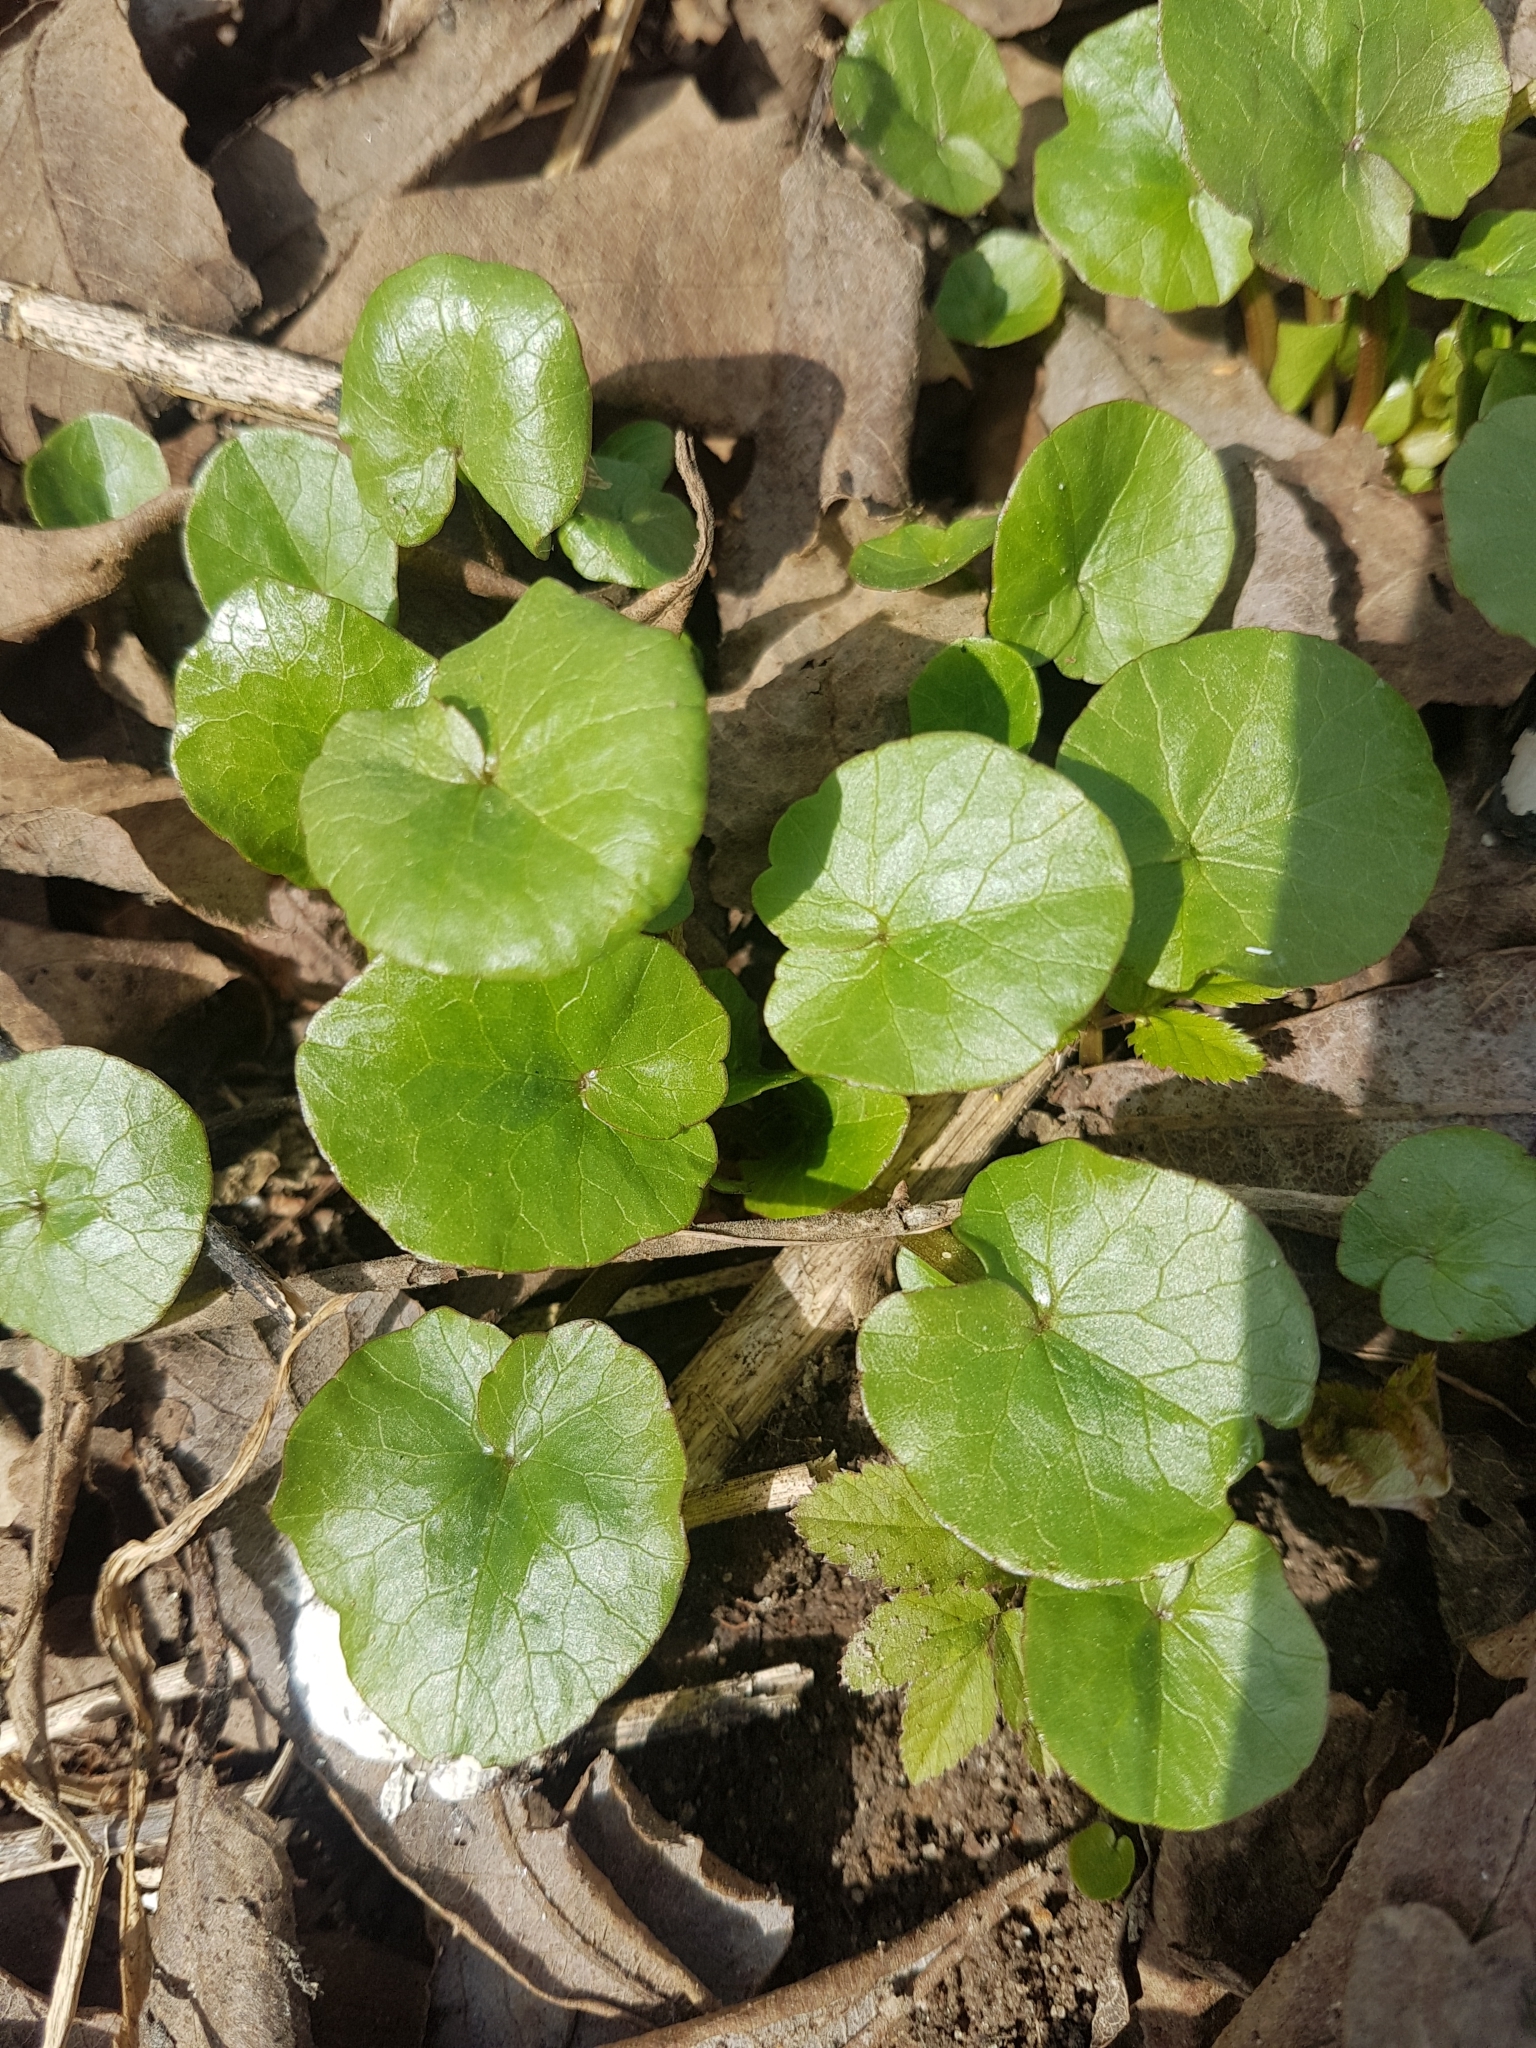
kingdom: Plantae
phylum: Tracheophyta
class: Magnoliopsida
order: Ranunculales
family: Ranunculaceae
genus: Ficaria
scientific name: Ficaria verna
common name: Lesser celandine
